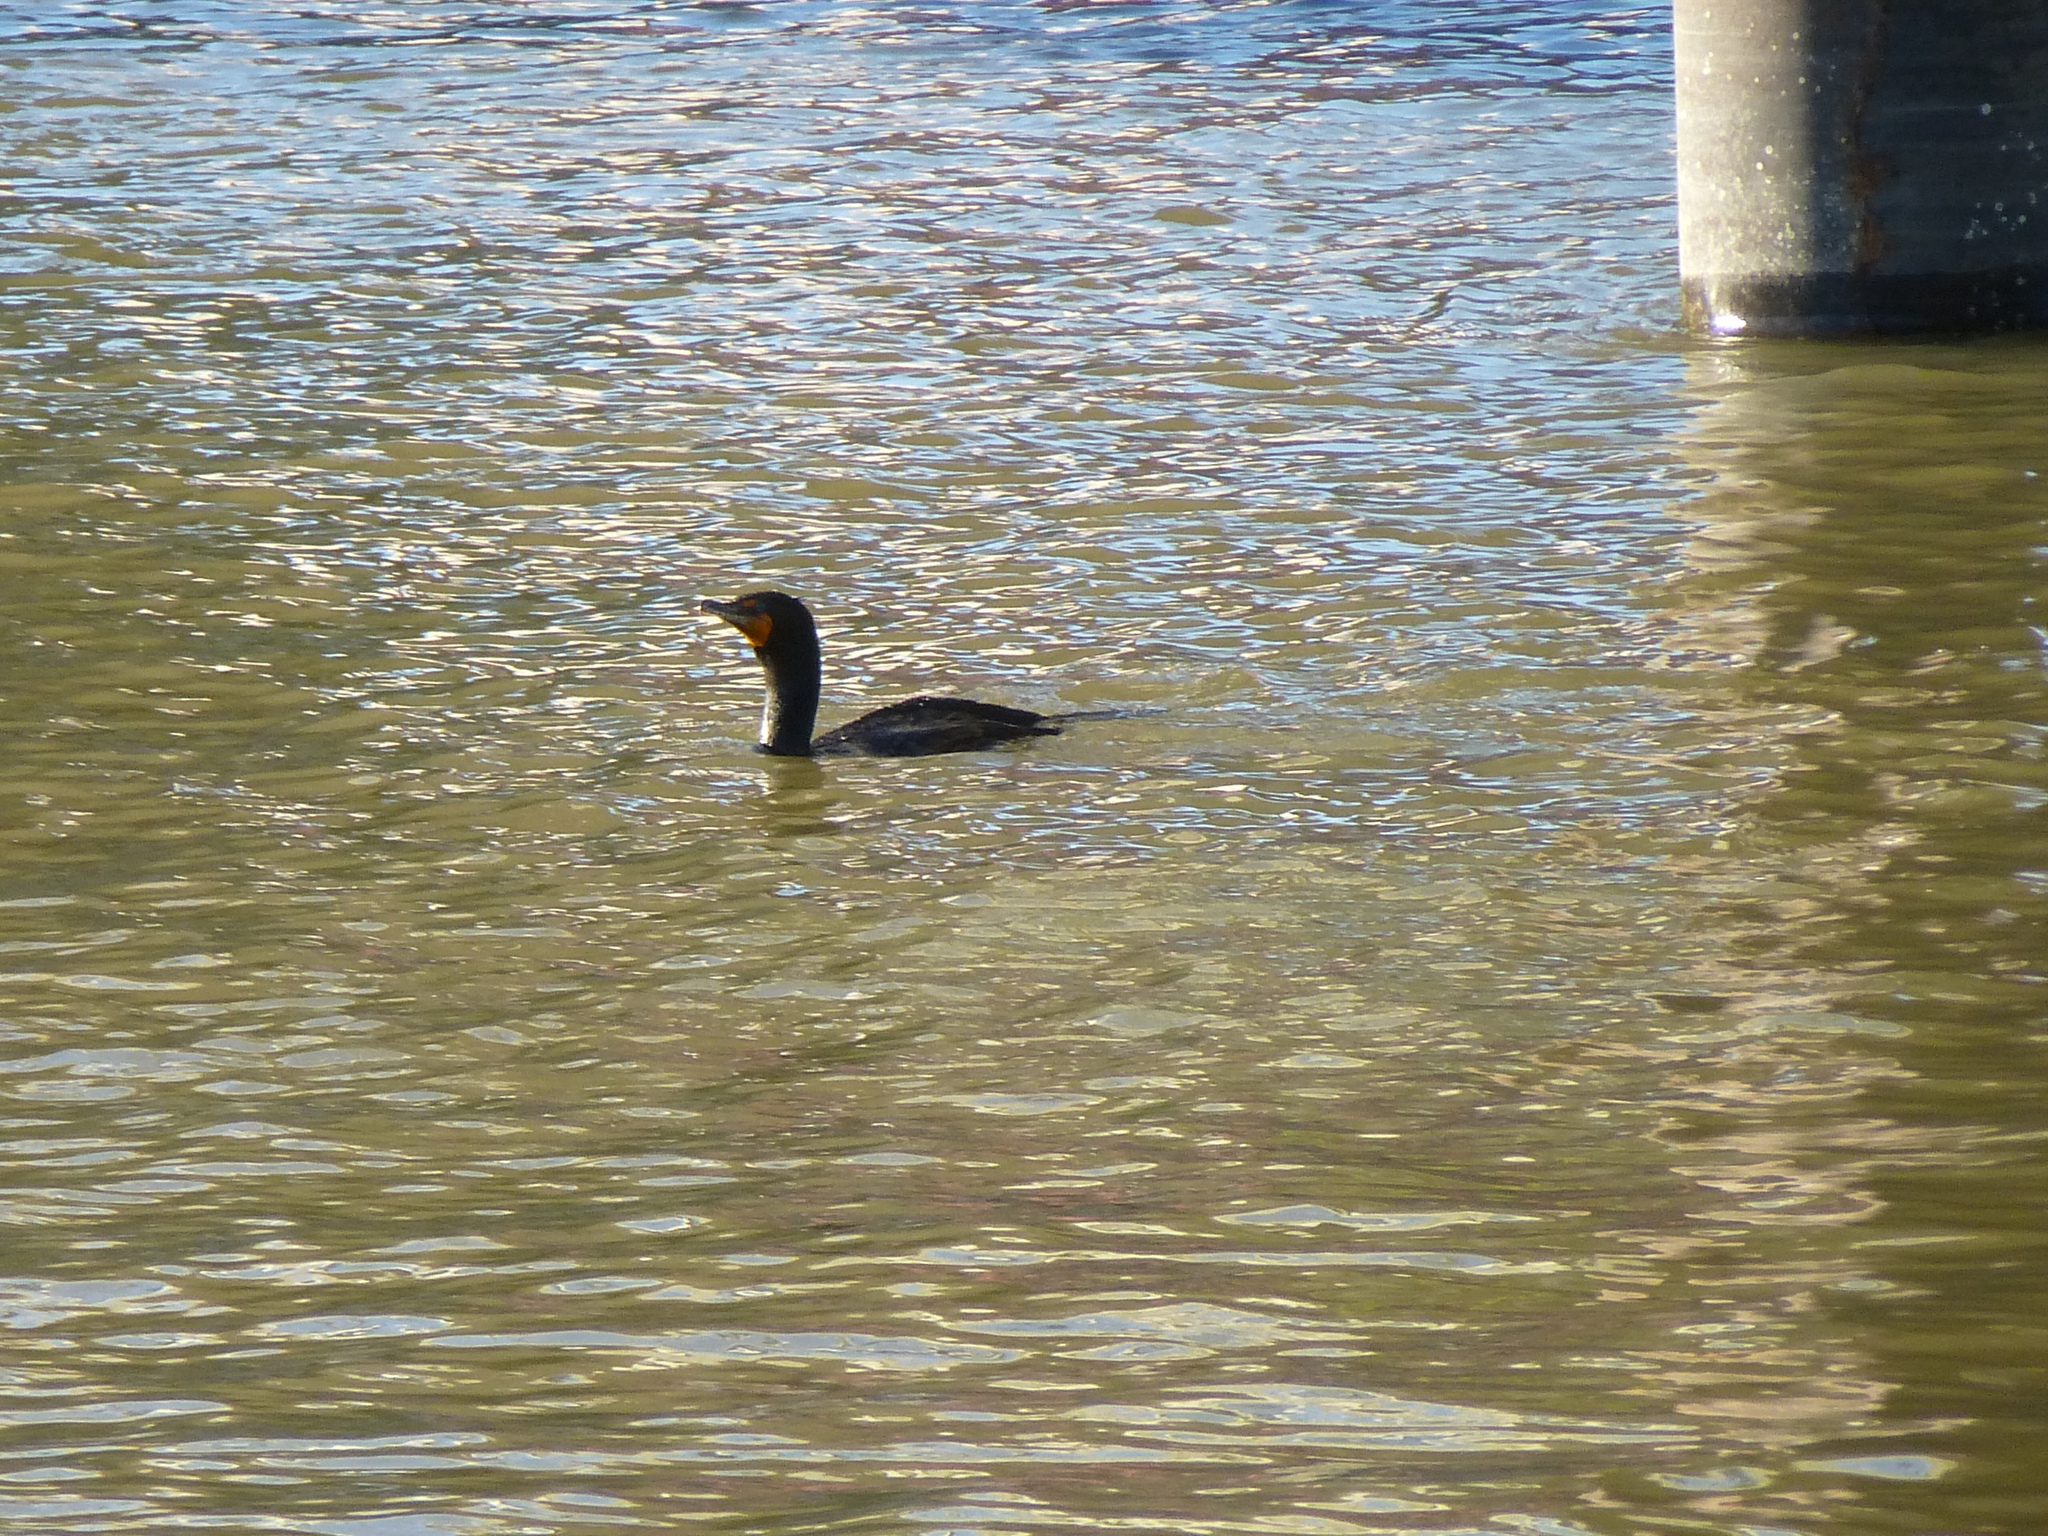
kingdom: Animalia
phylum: Chordata
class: Aves
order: Suliformes
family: Phalacrocoracidae
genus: Phalacrocorax
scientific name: Phalacrocorax auritus
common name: Double-crested cormorant
